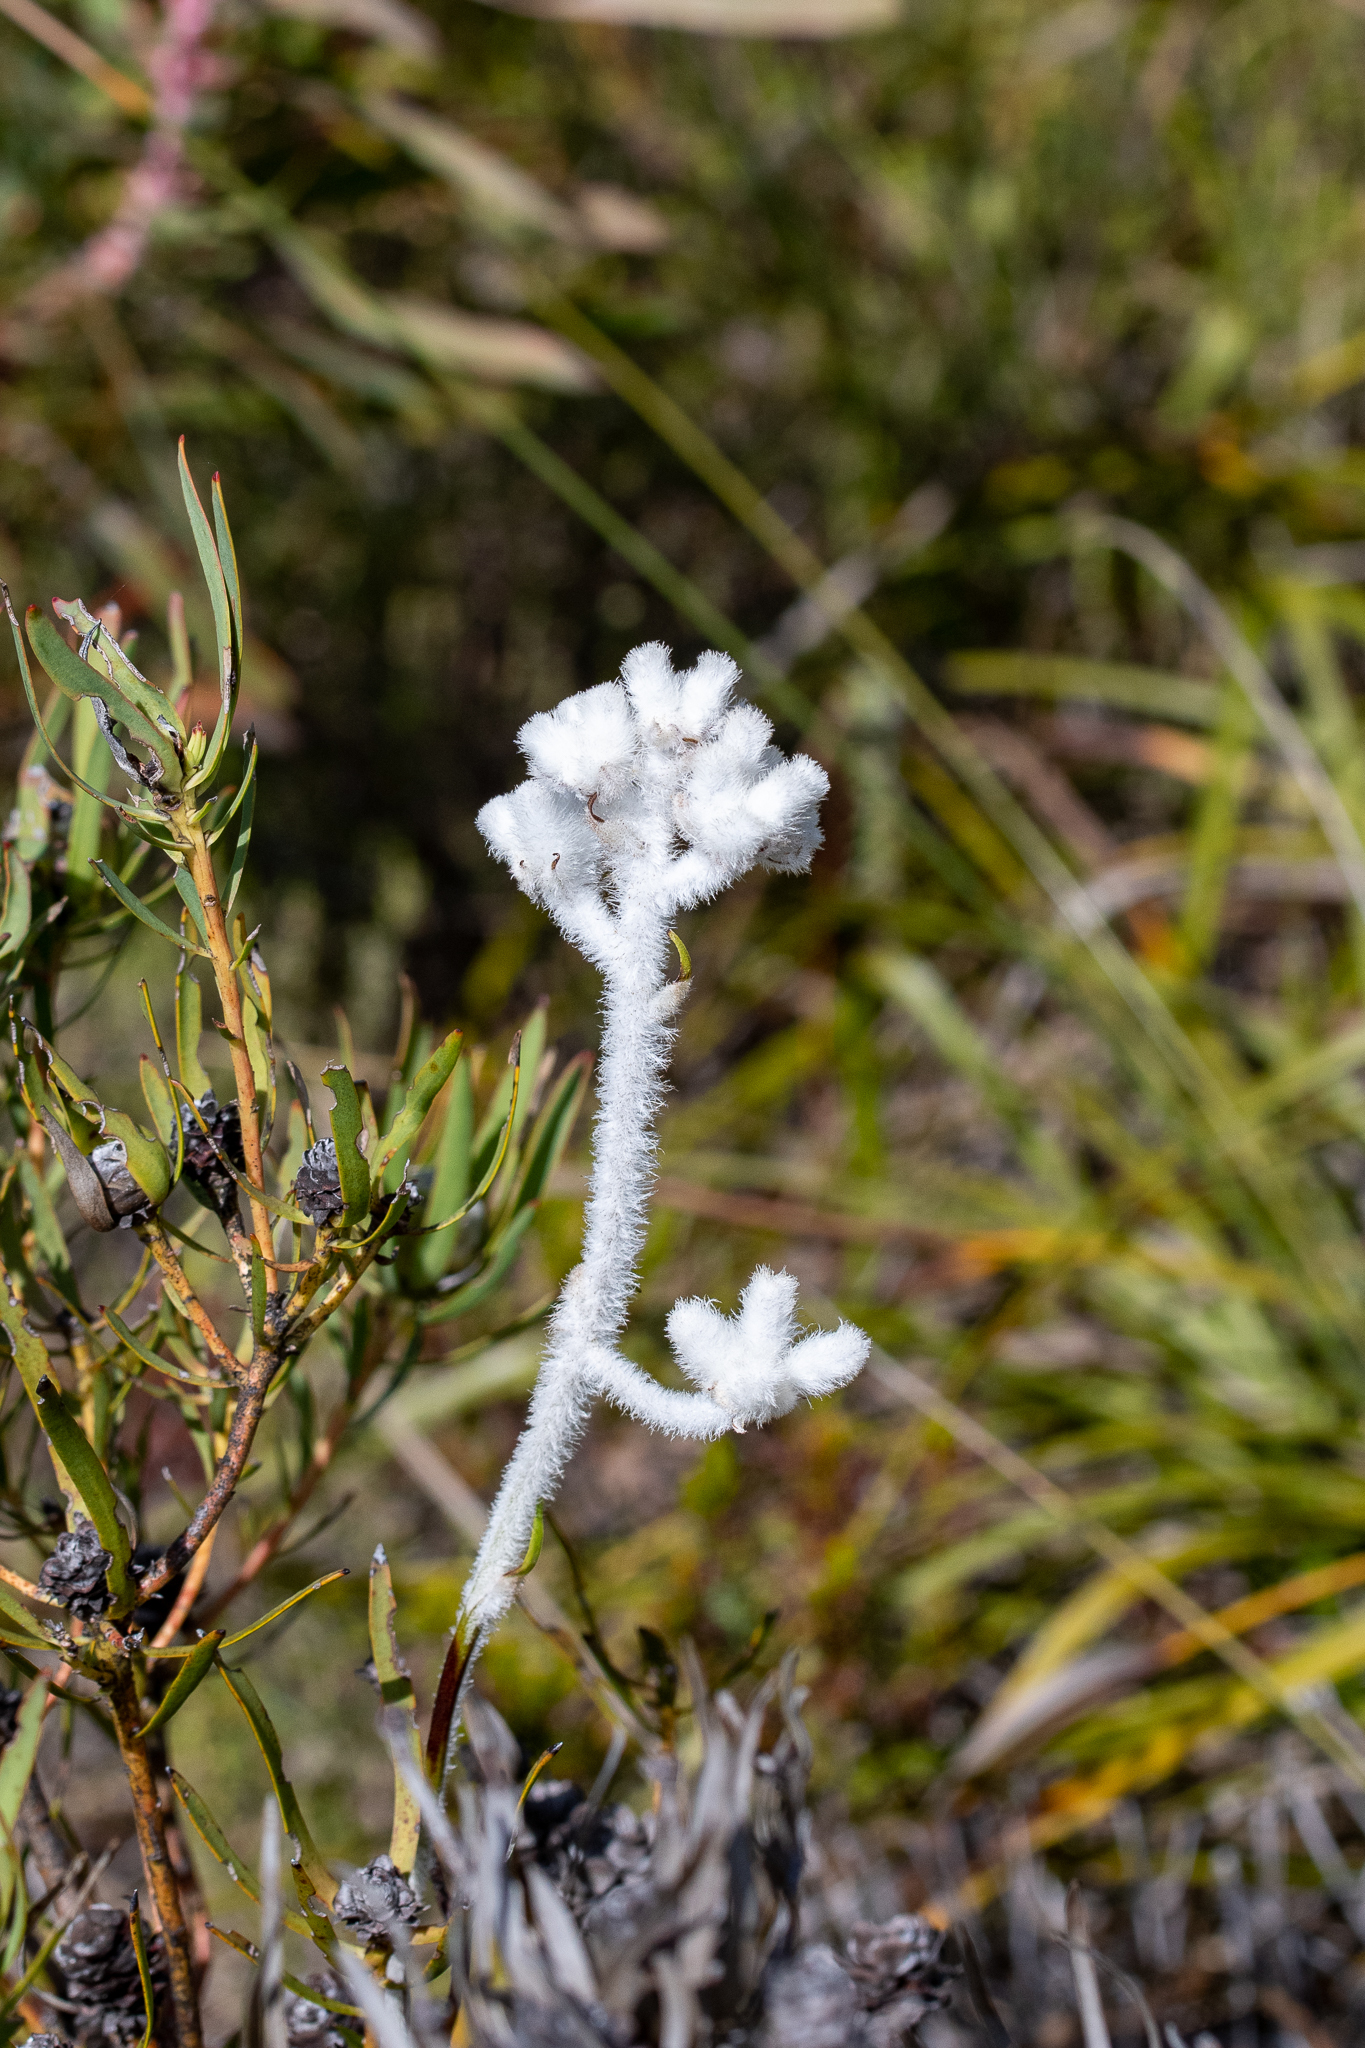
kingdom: Plantae
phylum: Tracheophyta
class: Liliopsida
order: Asparagales
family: Lanariaceae
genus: Lanaria
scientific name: Lanaria lanata
